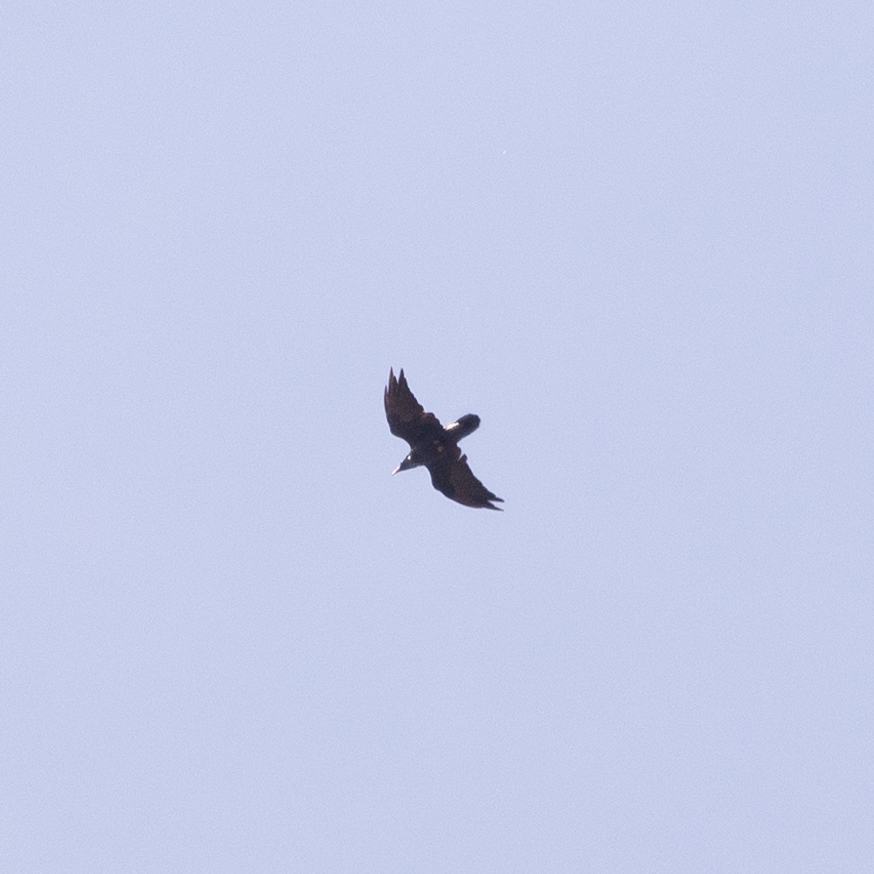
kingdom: Animalia
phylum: Chordata
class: Aves
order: Passeriformes
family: Corvidae
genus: Corvus
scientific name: Corvus corax
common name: Common raven
